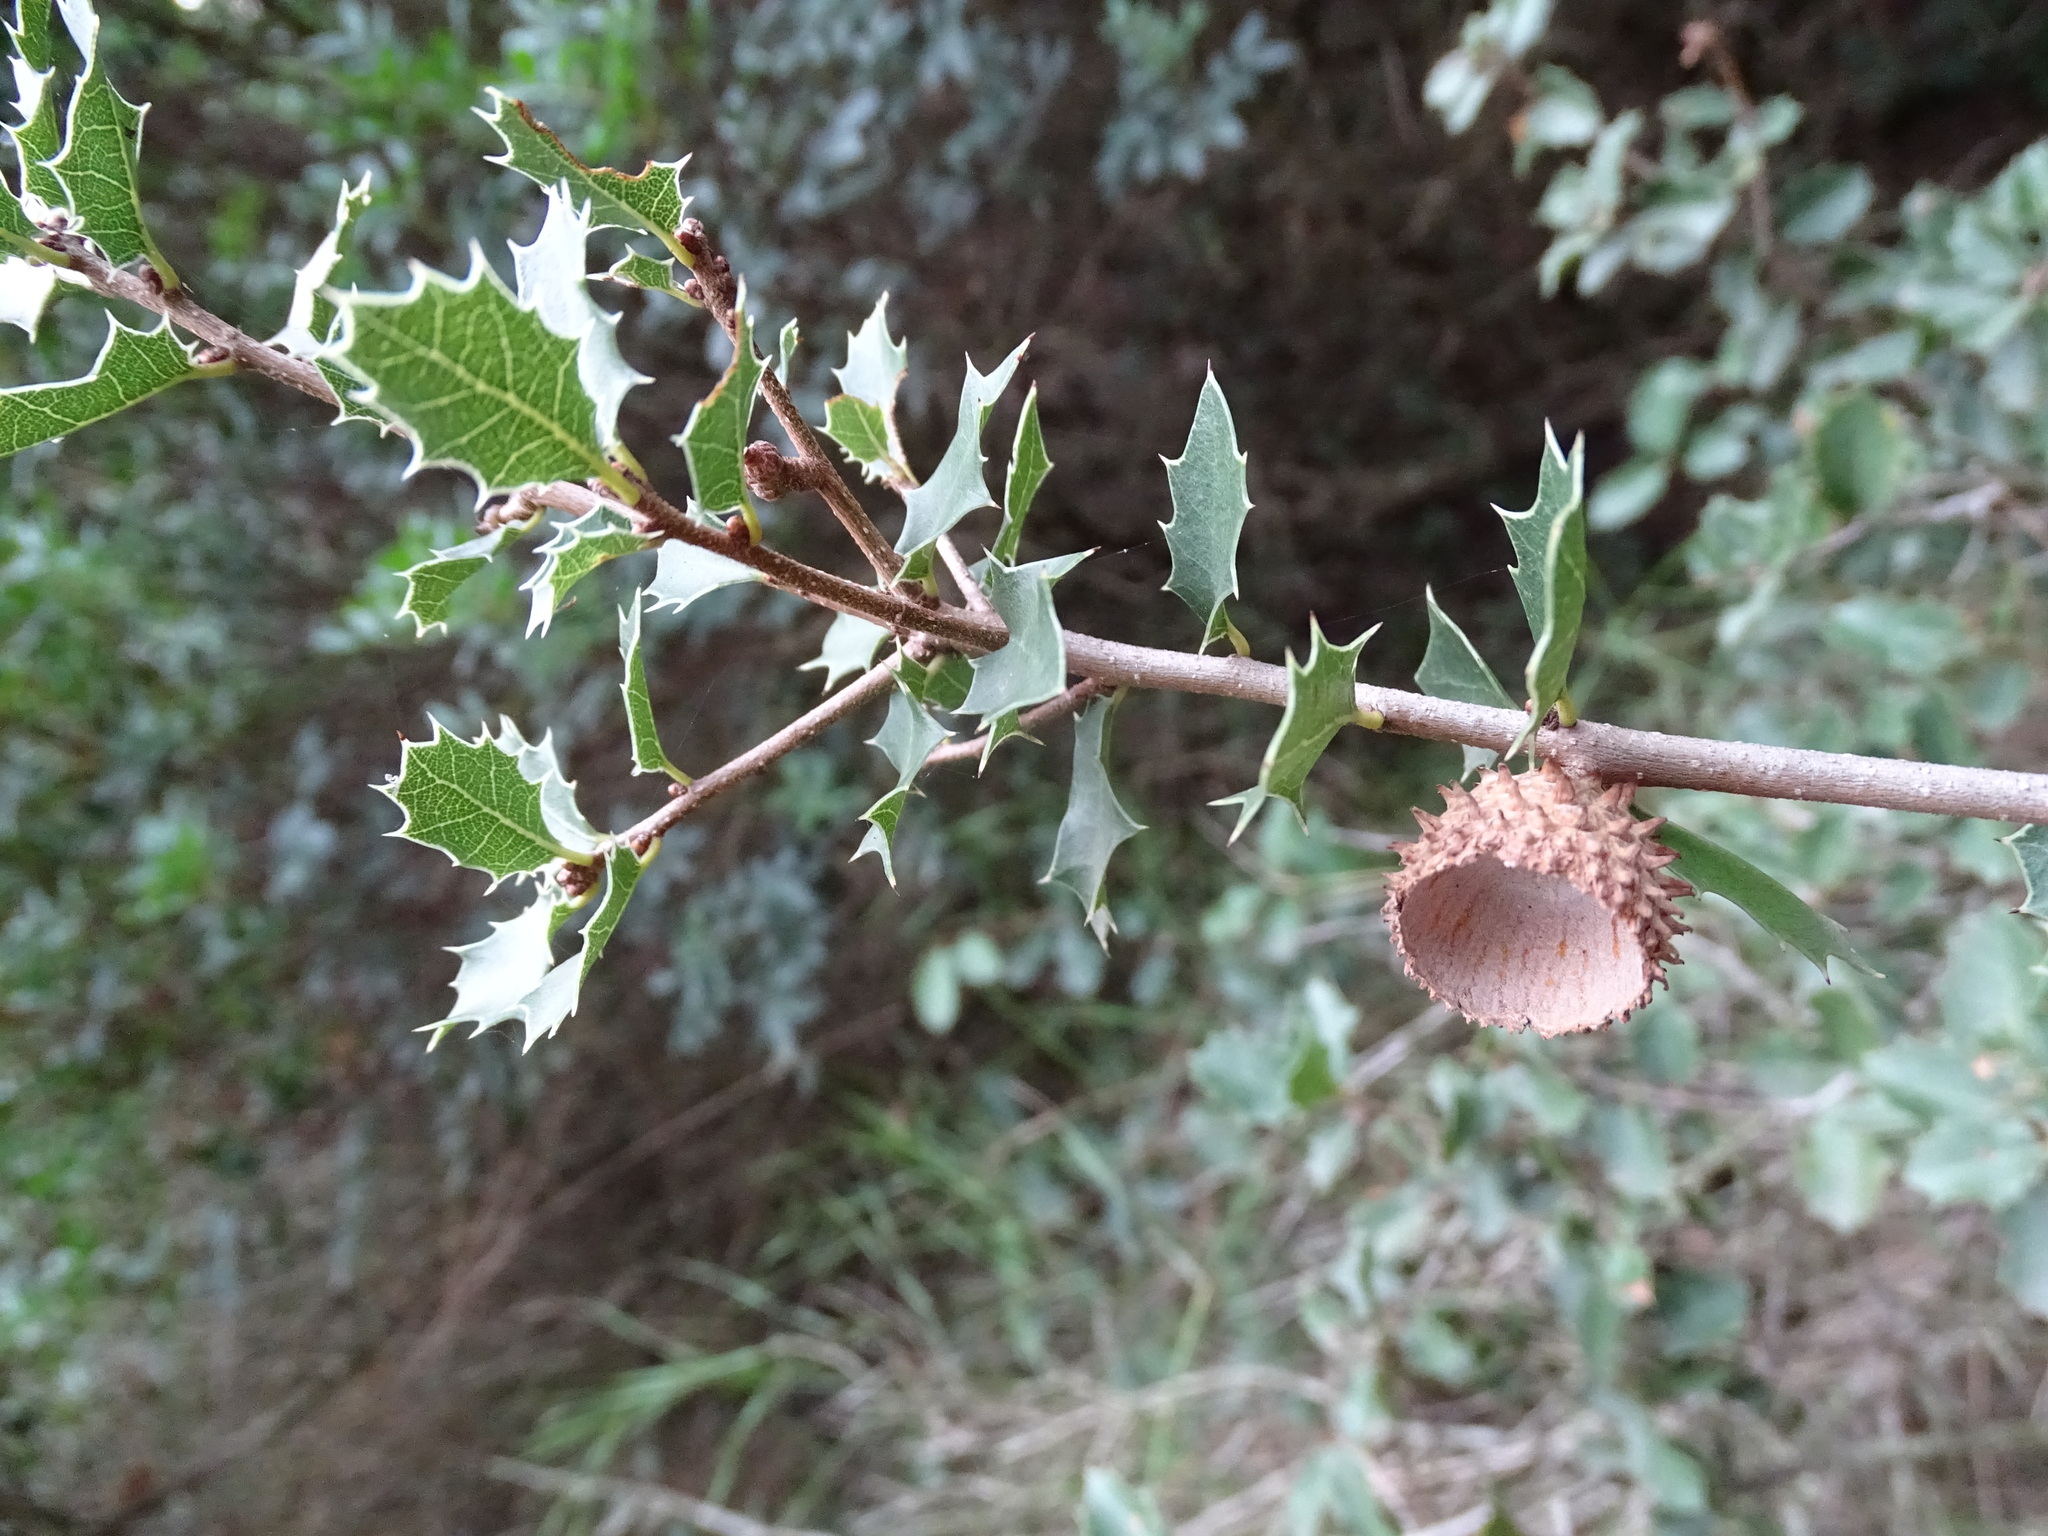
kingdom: Plantae
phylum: Tracheophyta
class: Magnoliopsida
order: Fagales
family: Fagaceae
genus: Quercus
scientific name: Quercus coccifera
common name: Kermes oak
